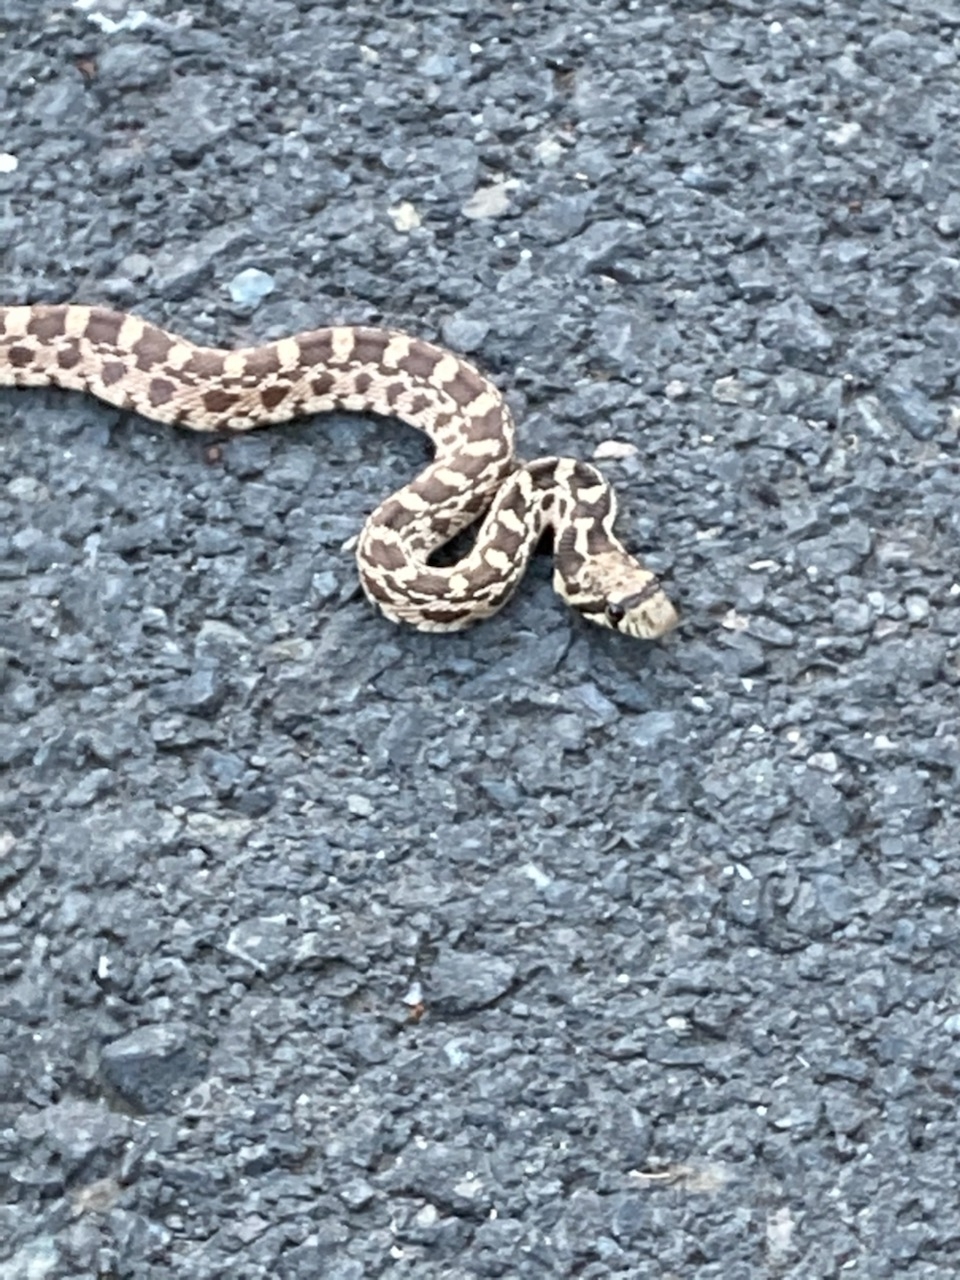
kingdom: Animalia
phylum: Chordata
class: Squamata
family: Colubridae
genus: Pituophis
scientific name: Pituophis catenifer
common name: Gopher snake
